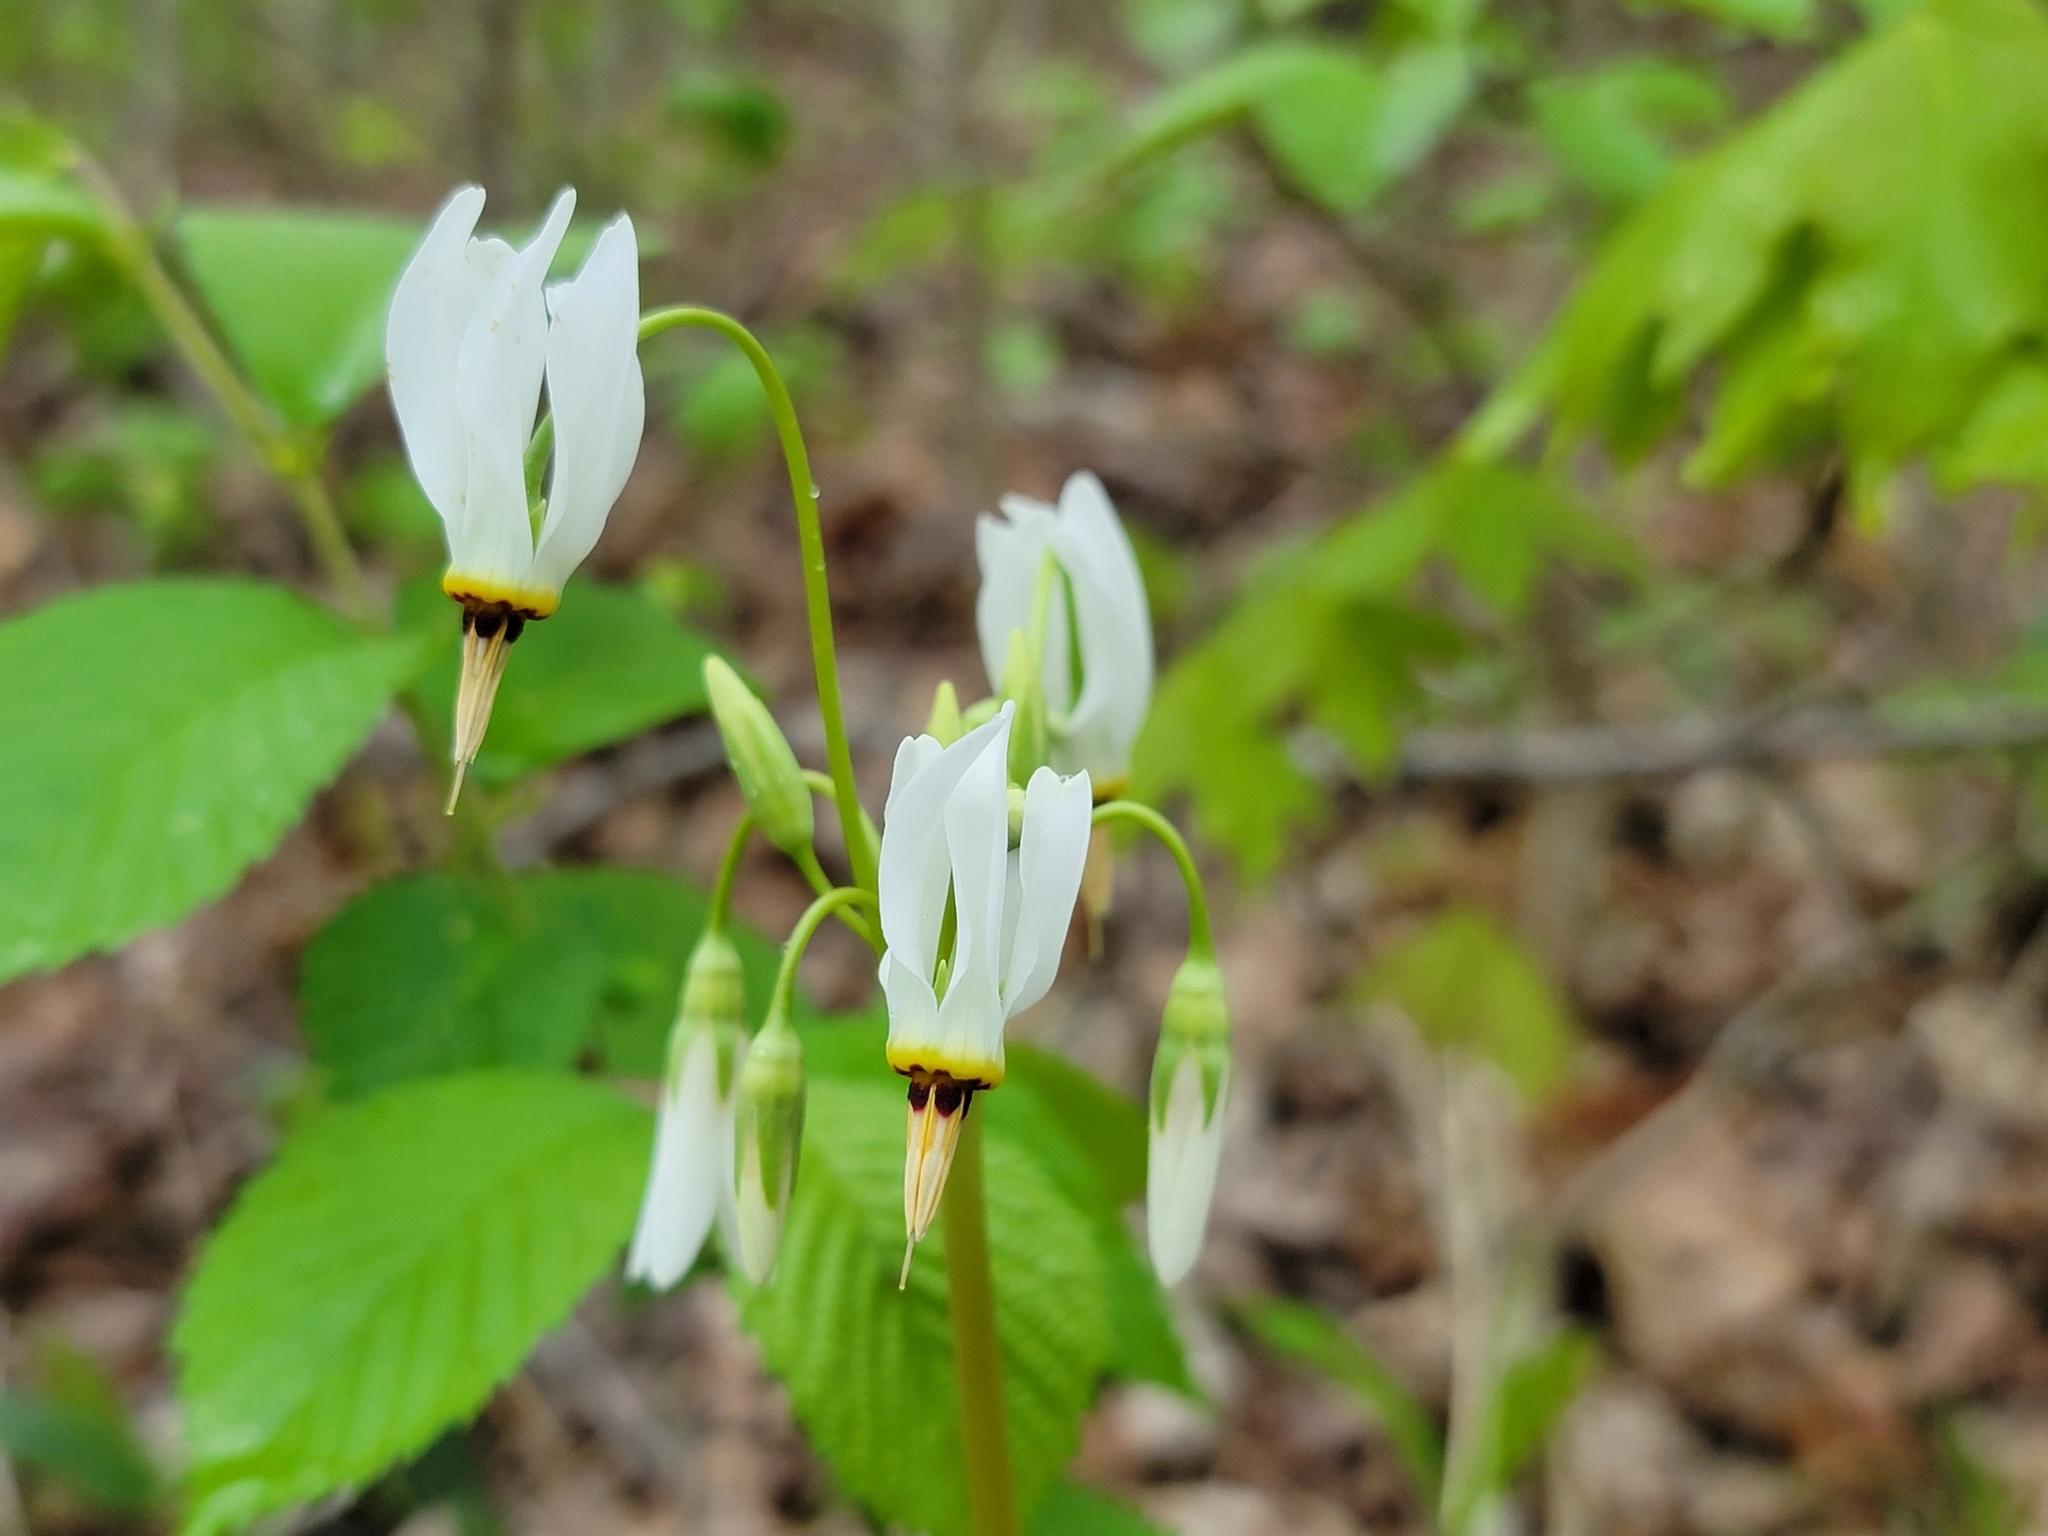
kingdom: Plantae
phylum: Tracheophyta
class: Magnoliopsida
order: Ericales
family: Primulaceae
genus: Dodecatheon
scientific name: Dodecatheon meadia
